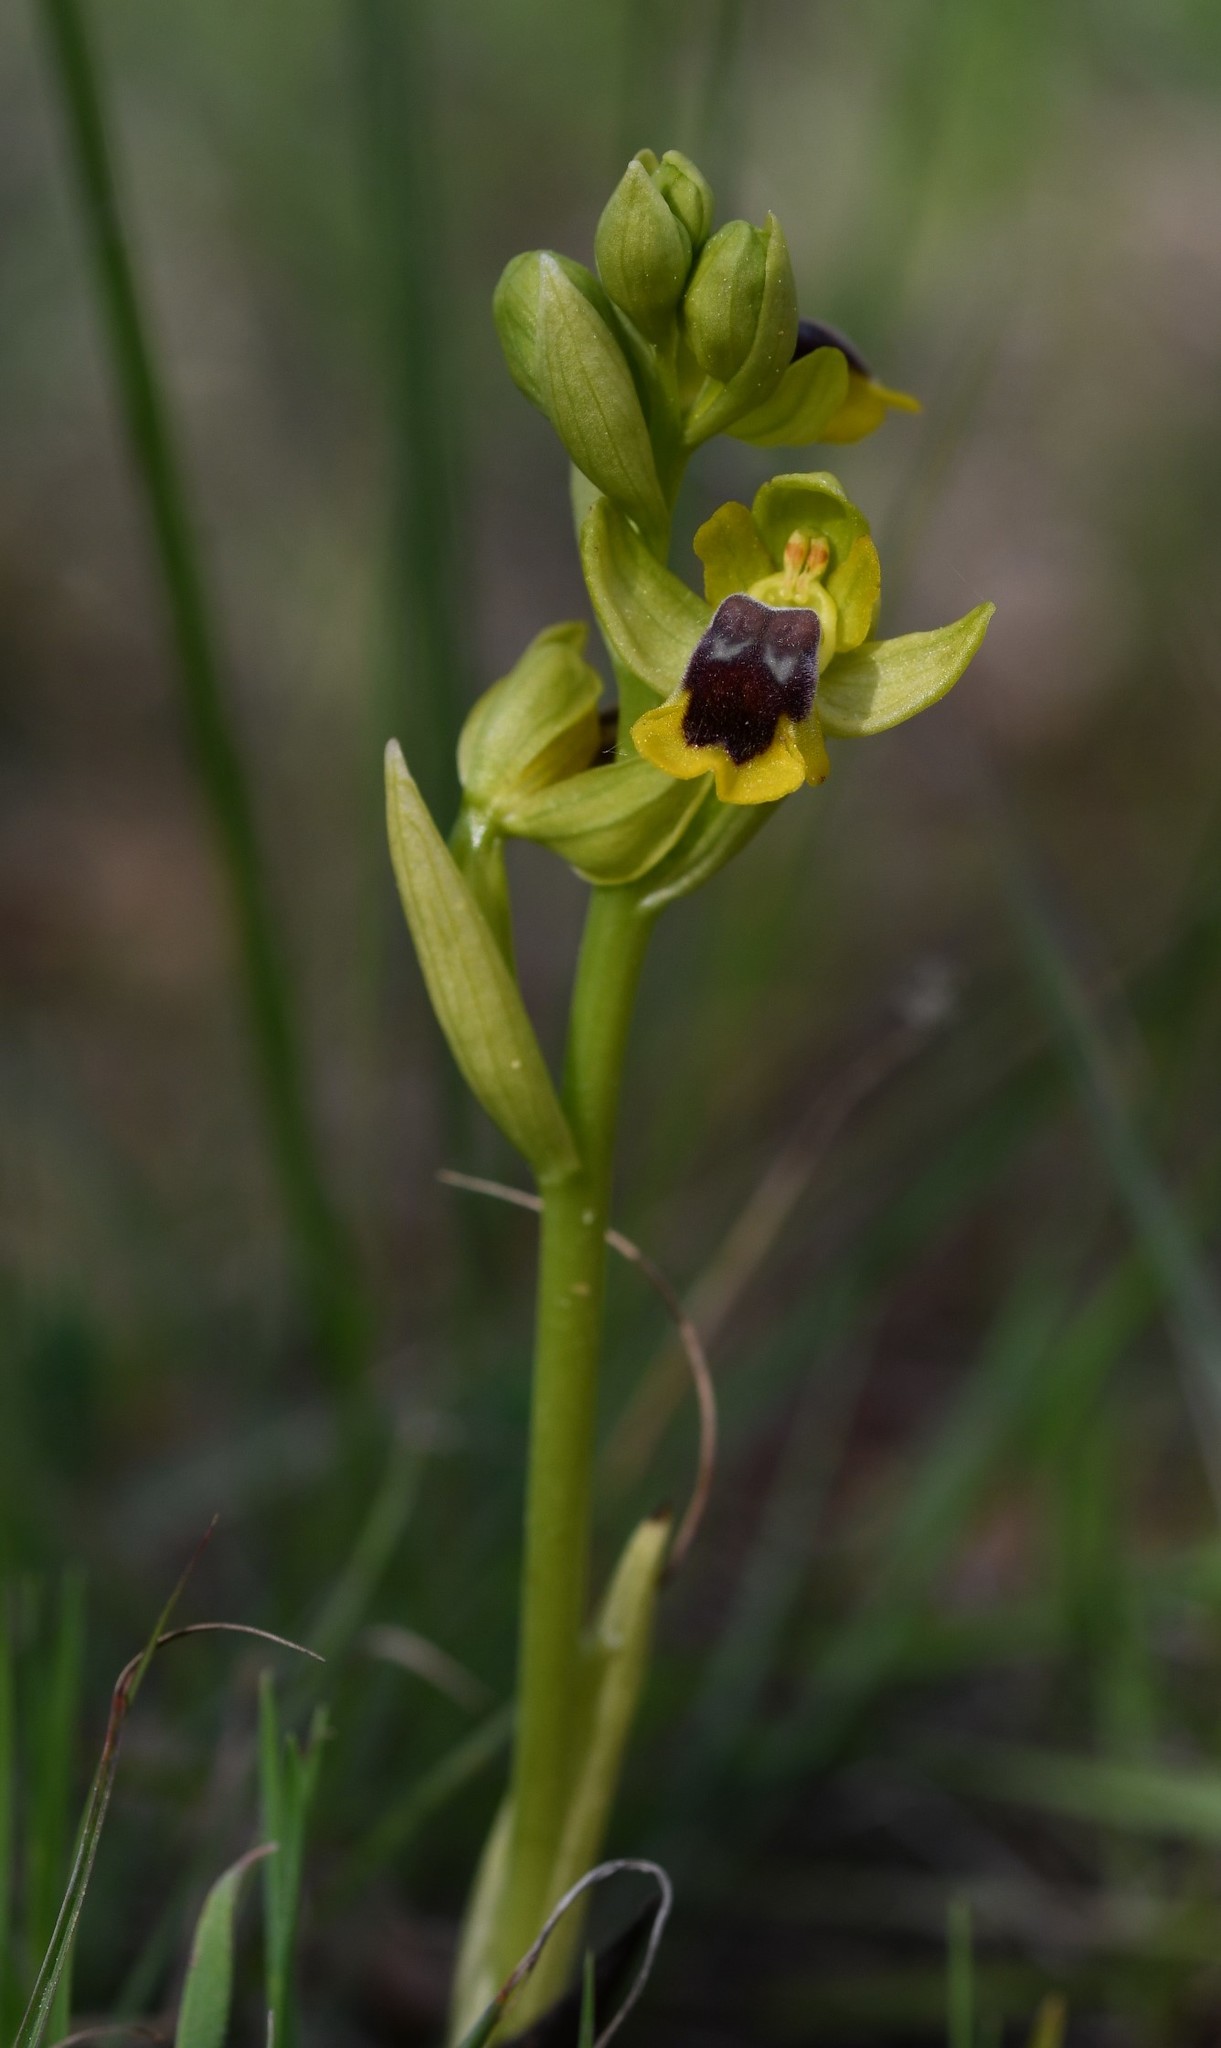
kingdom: Plantae
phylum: Tracheophyta
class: Liliopsida
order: Asparagales
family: Orchidaceae
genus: Ophrys
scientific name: Ophrys lutea
